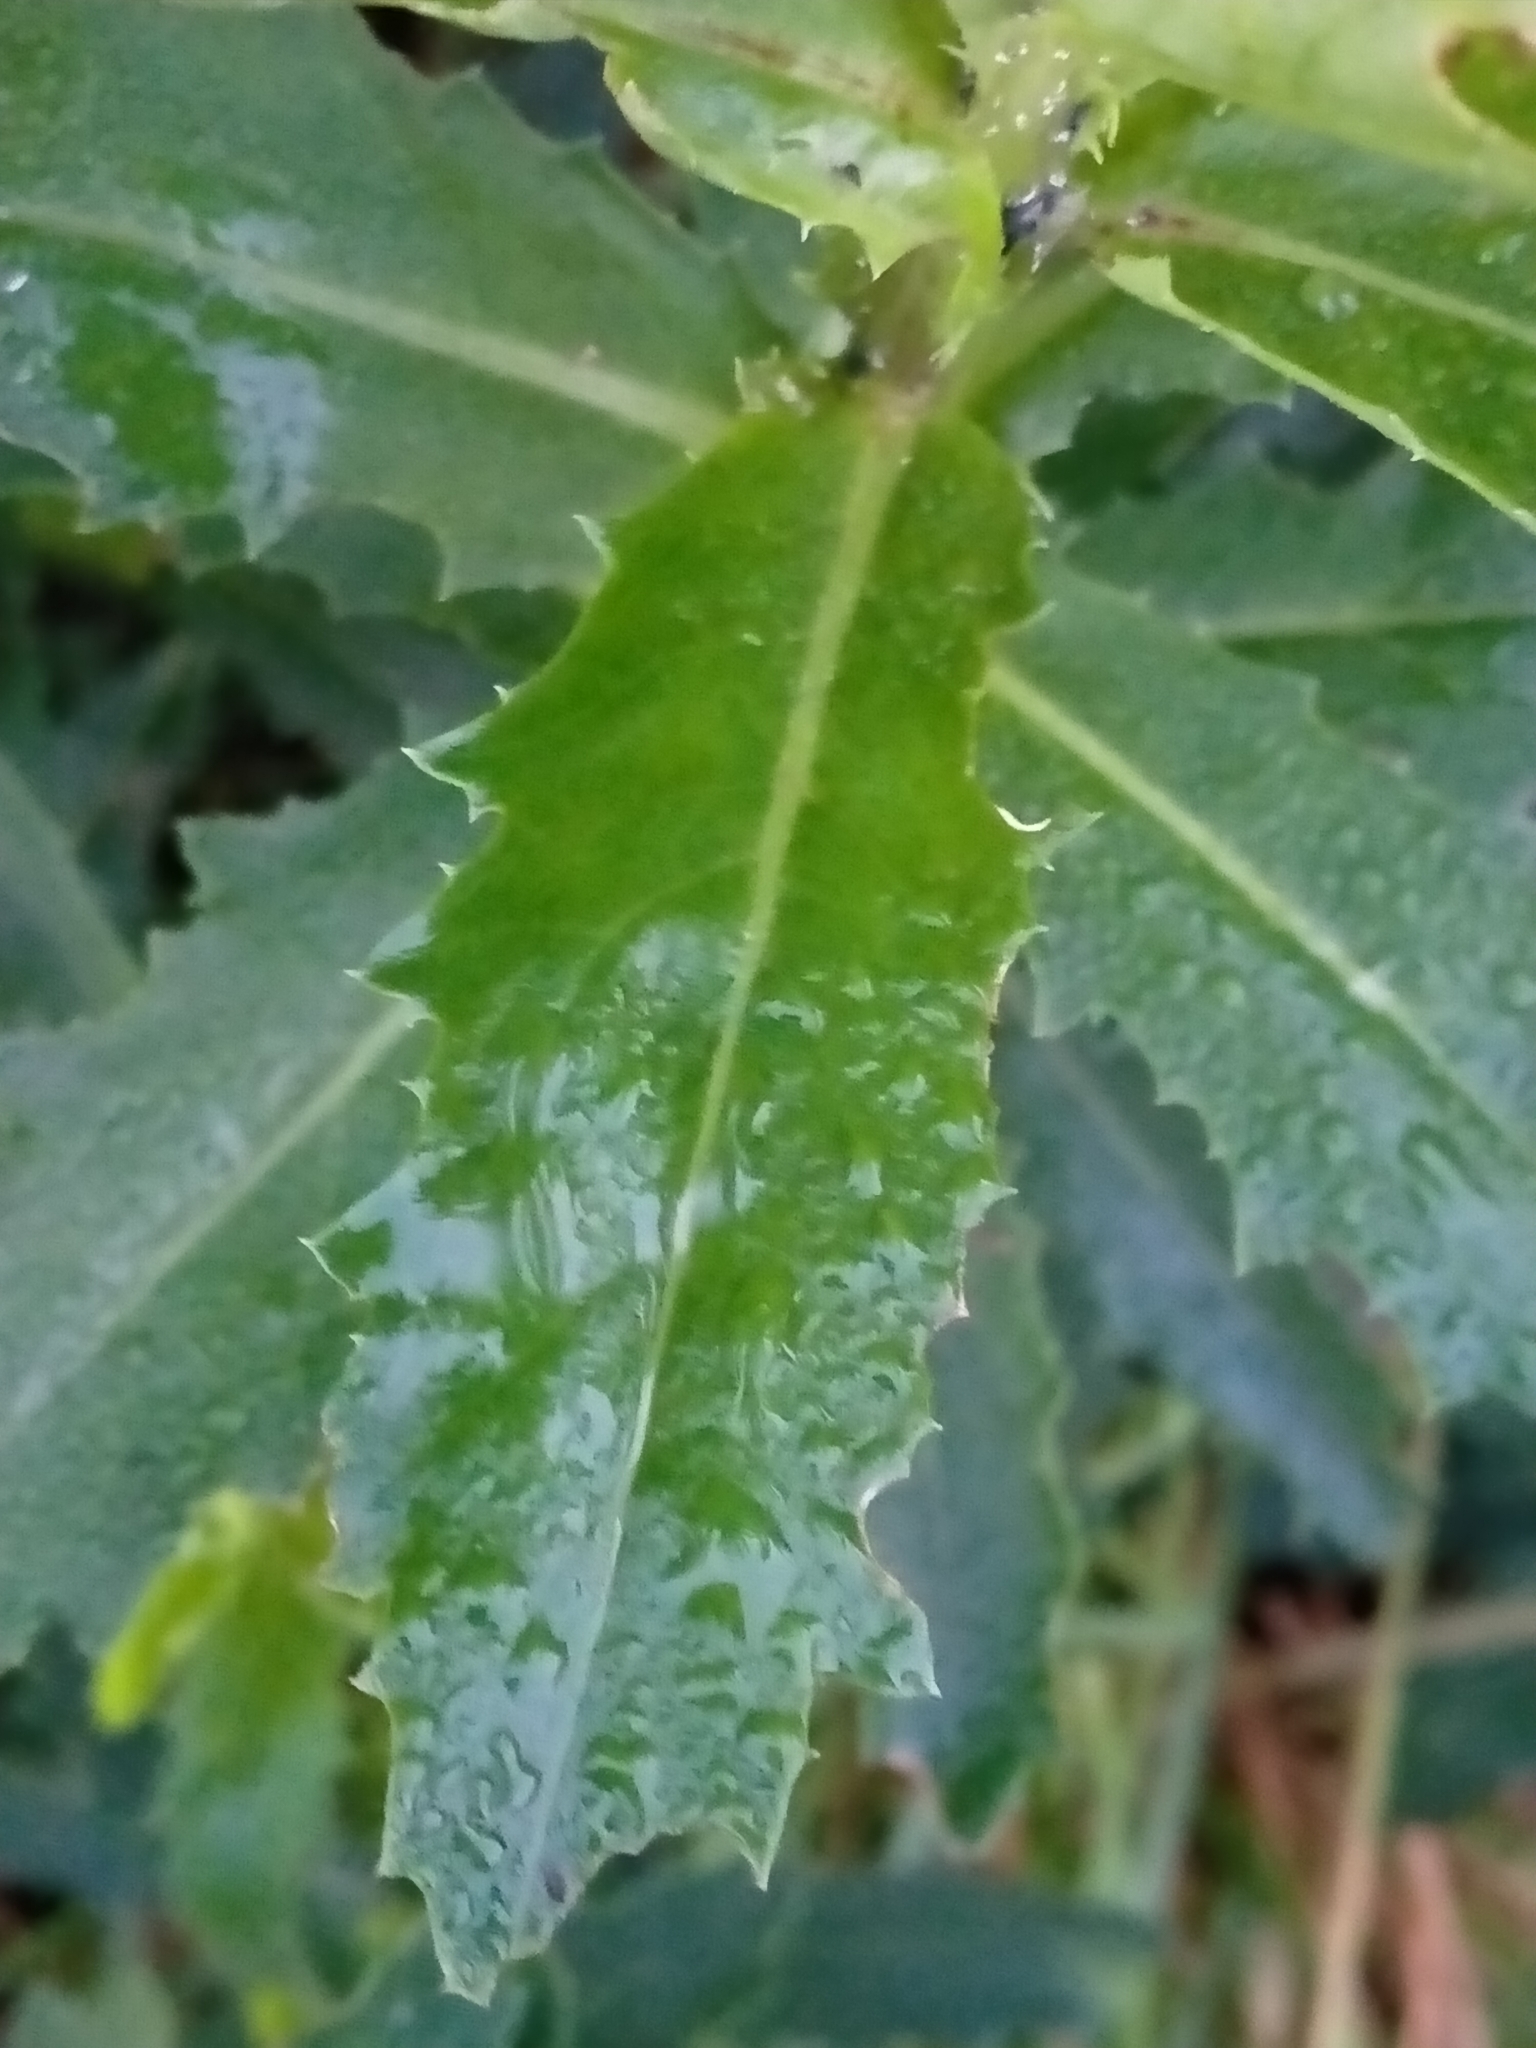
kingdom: Plantae
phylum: Tracheophyta
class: Magnoliopsida
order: Asterales
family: Asteraceae
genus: Senecio
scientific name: Senecio glastifolius
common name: Woad-leaved ragwort
